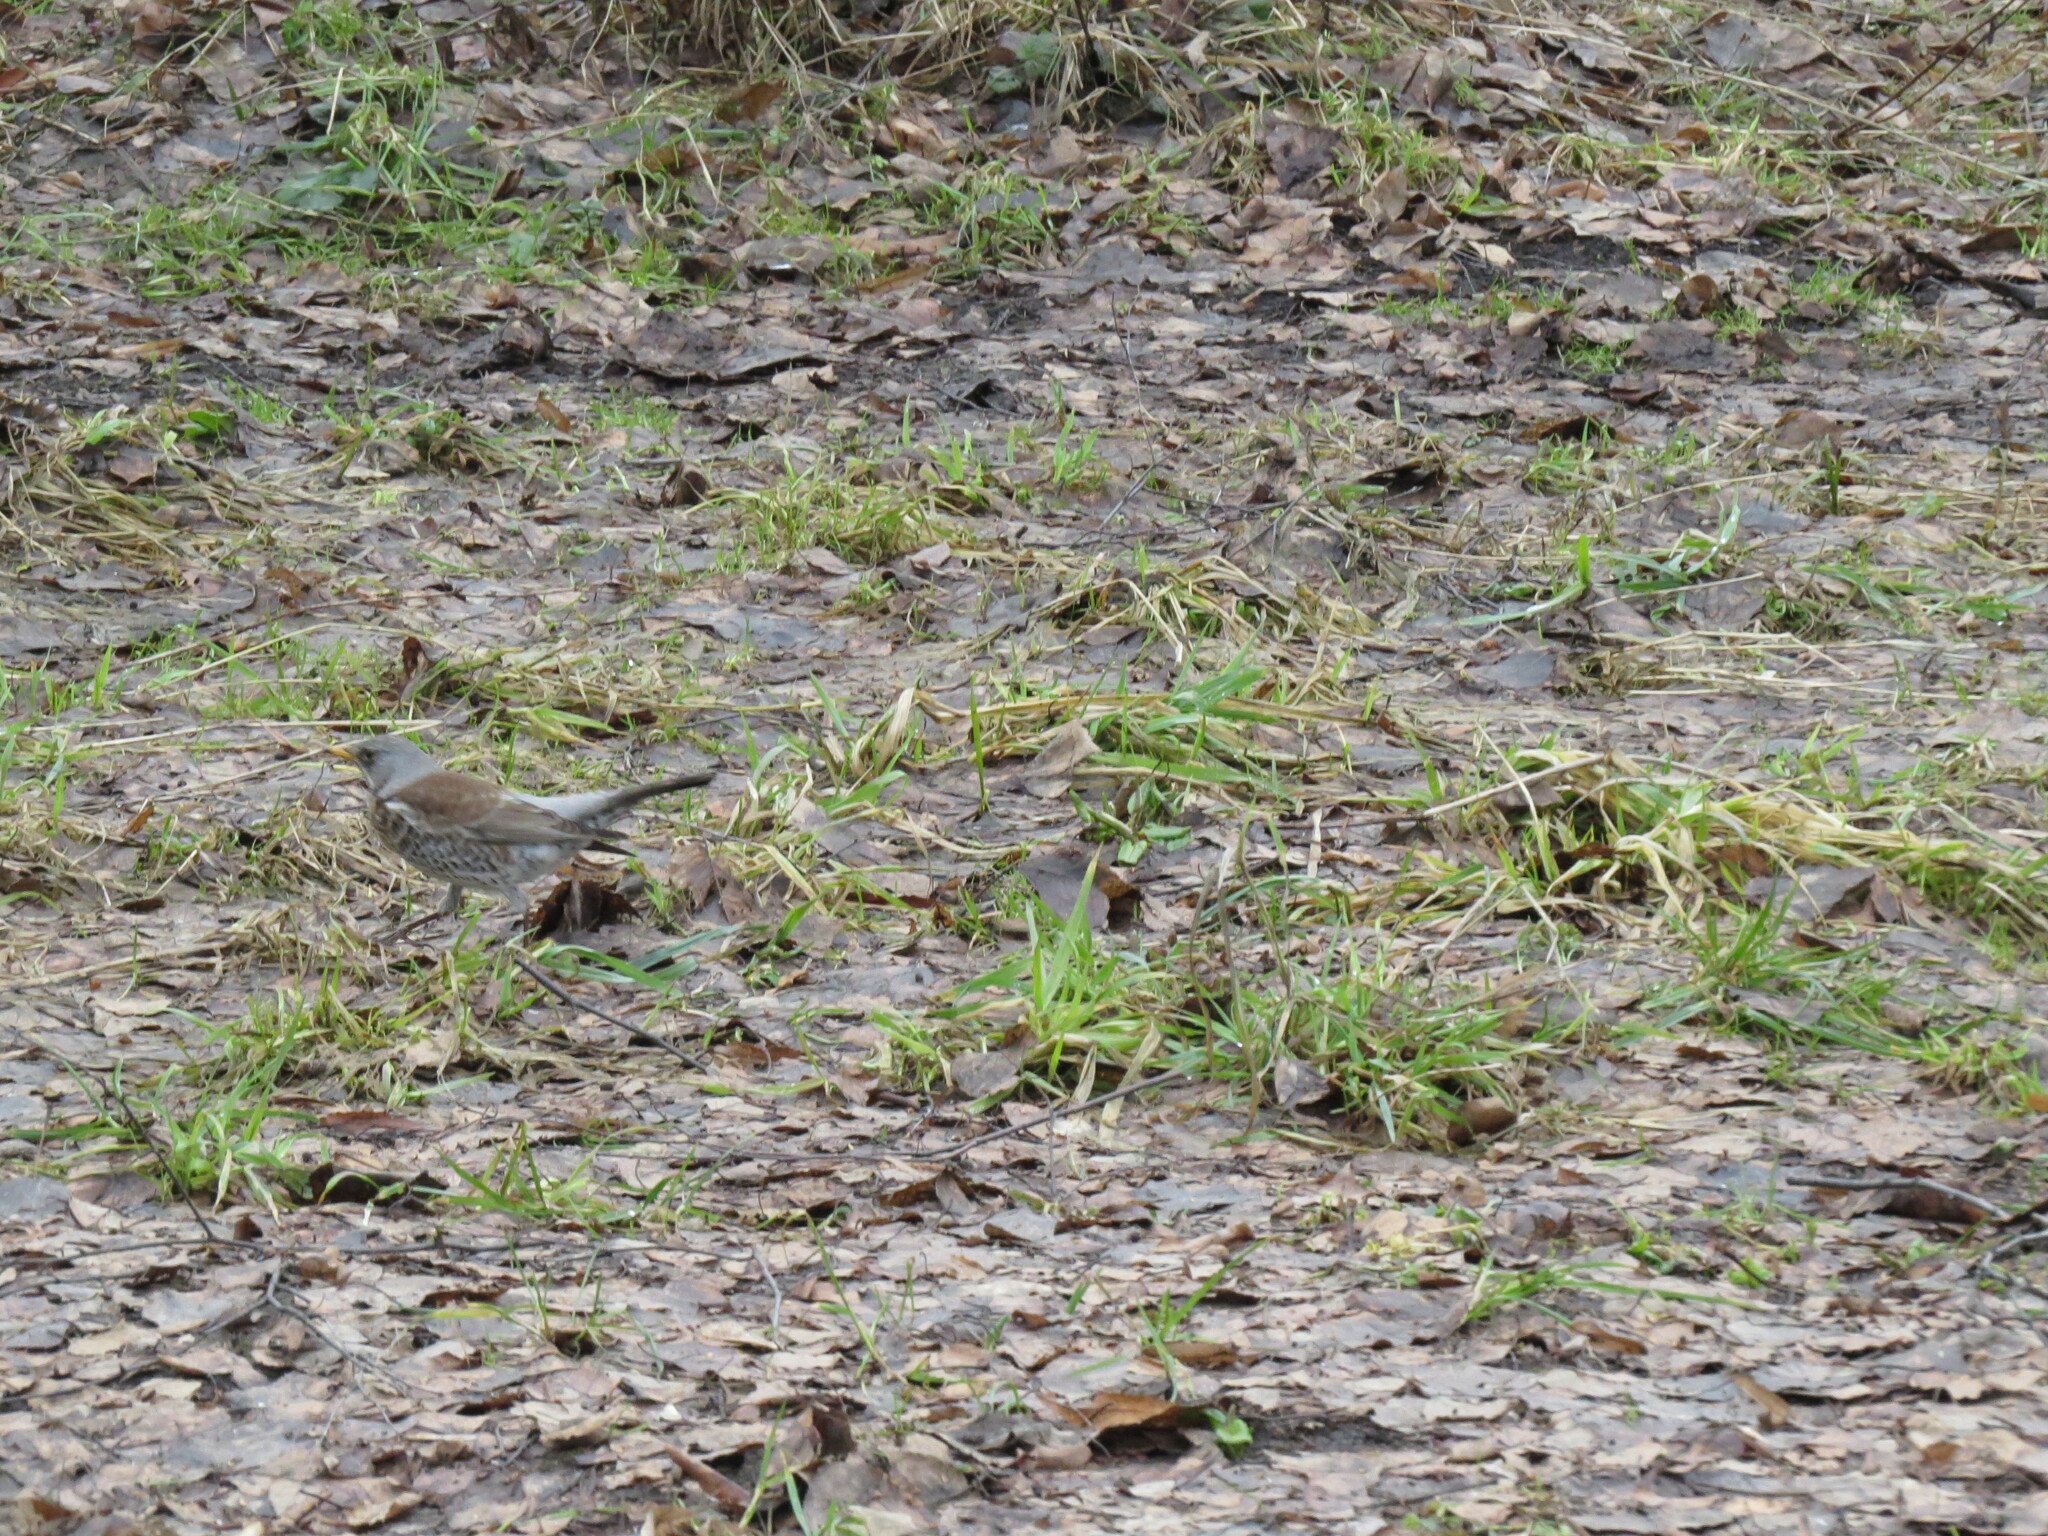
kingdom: Animalia
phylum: Chordata
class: Aves
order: Passeriformes
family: Turdidae
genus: Turdus
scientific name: Turdus pilaris
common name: Fieldfare
